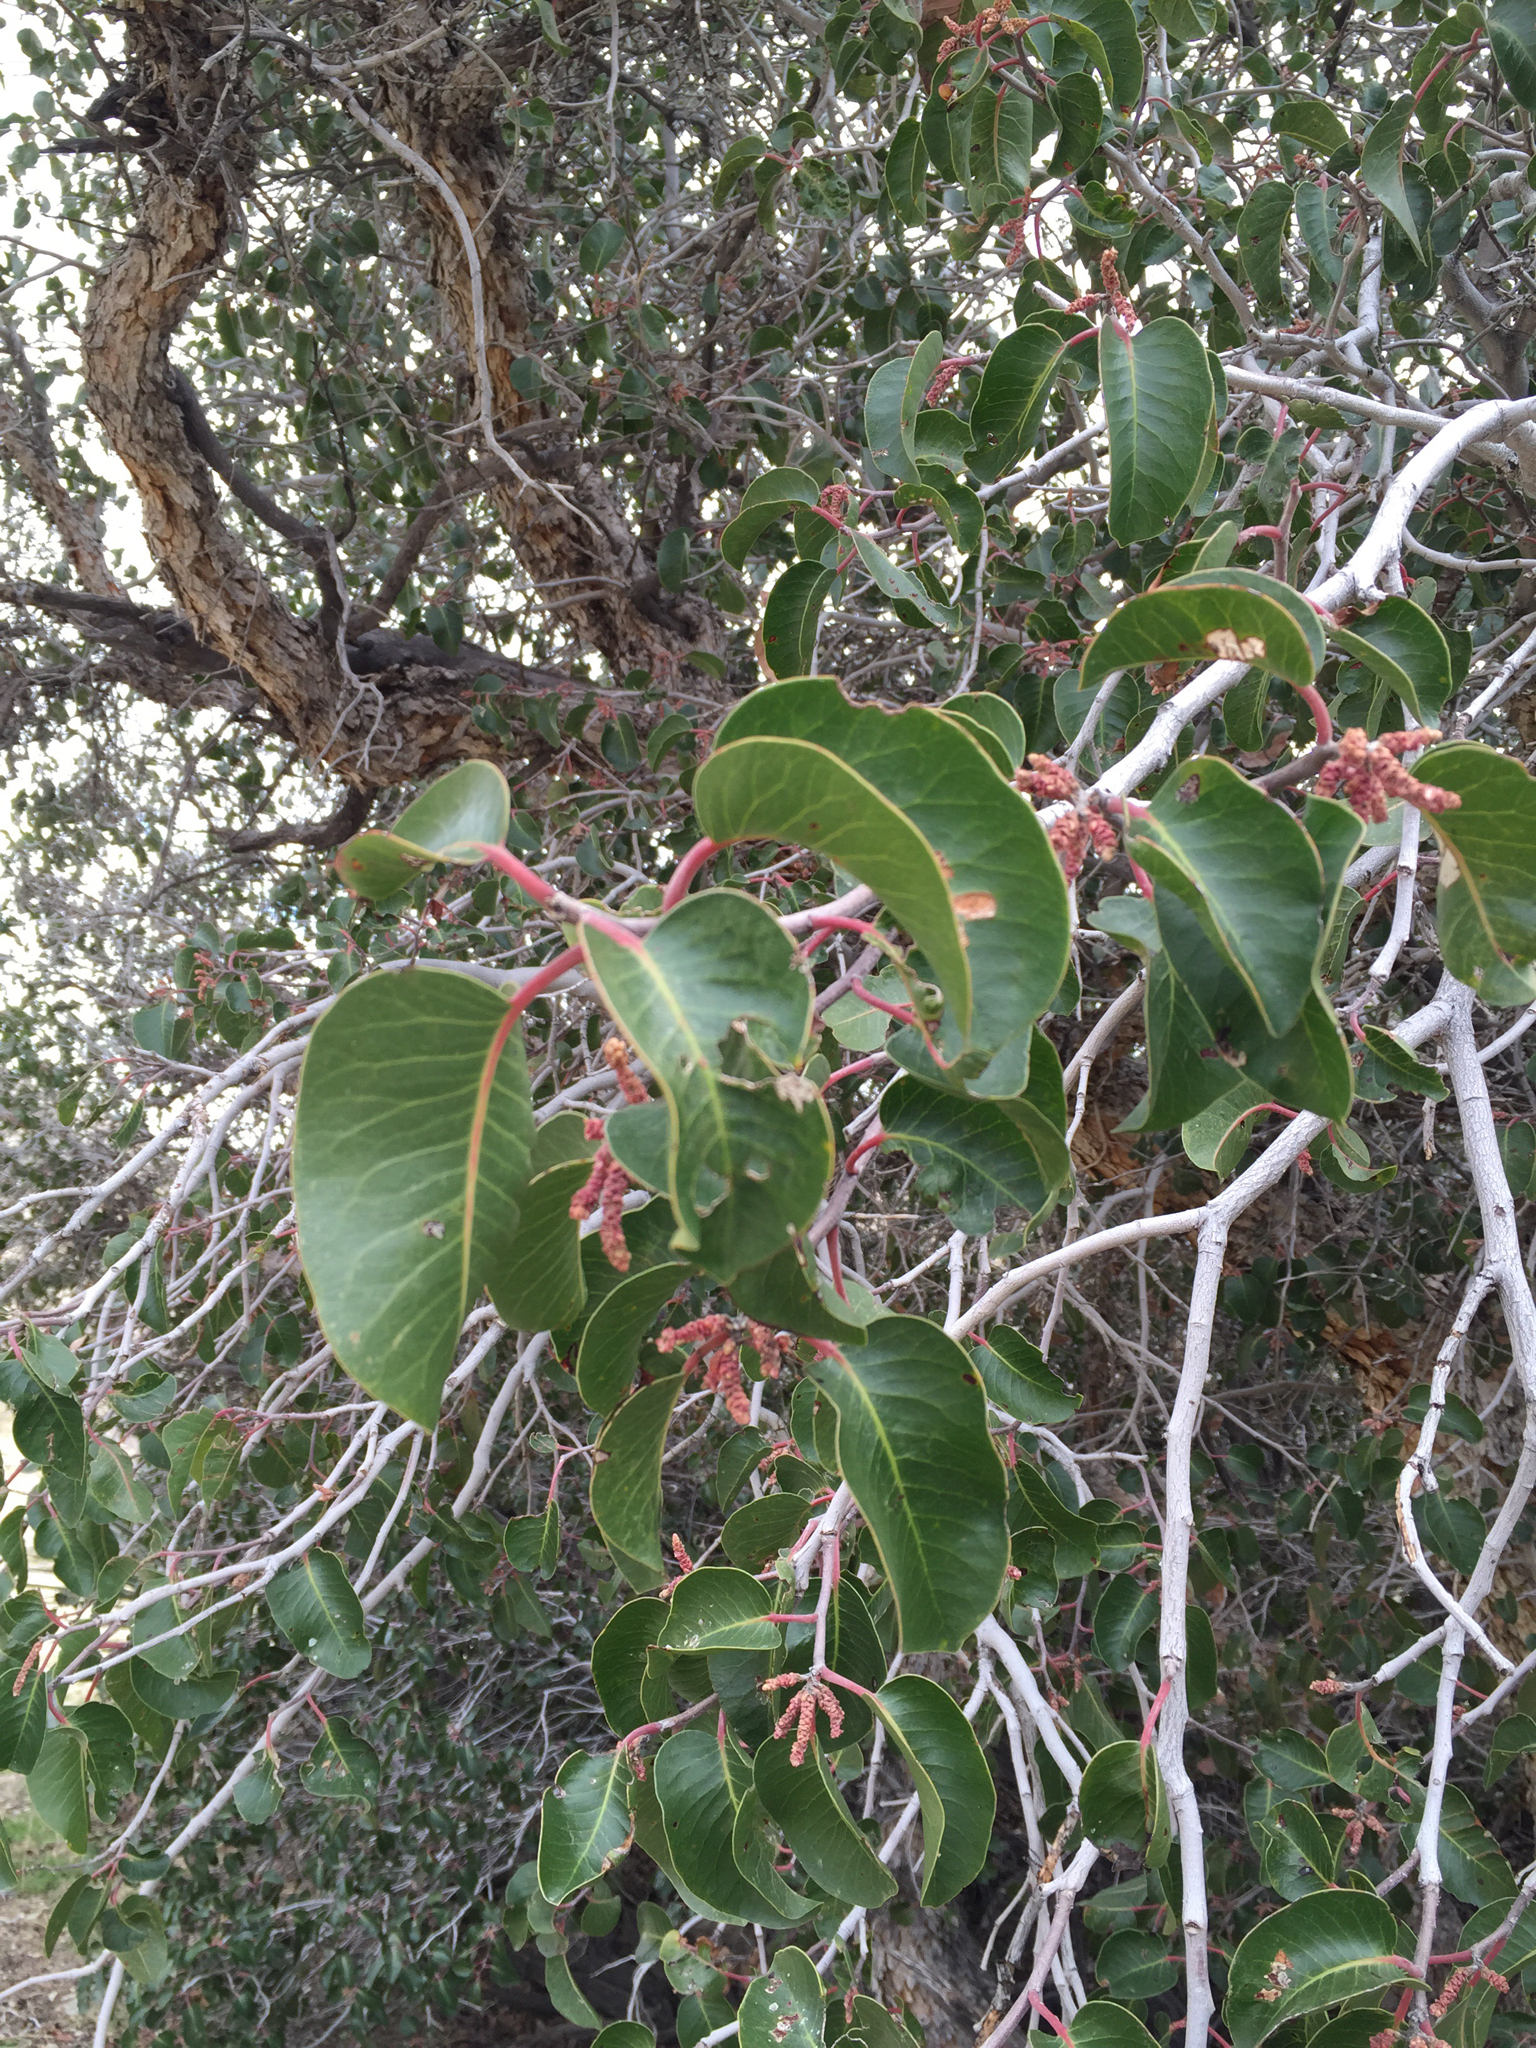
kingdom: Plantae
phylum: Tracheophyta
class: Magnoliopsida
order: Sapindales
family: Anacardiaceae
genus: Rhus
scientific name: Rhus ovata
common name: Sugar sumac
